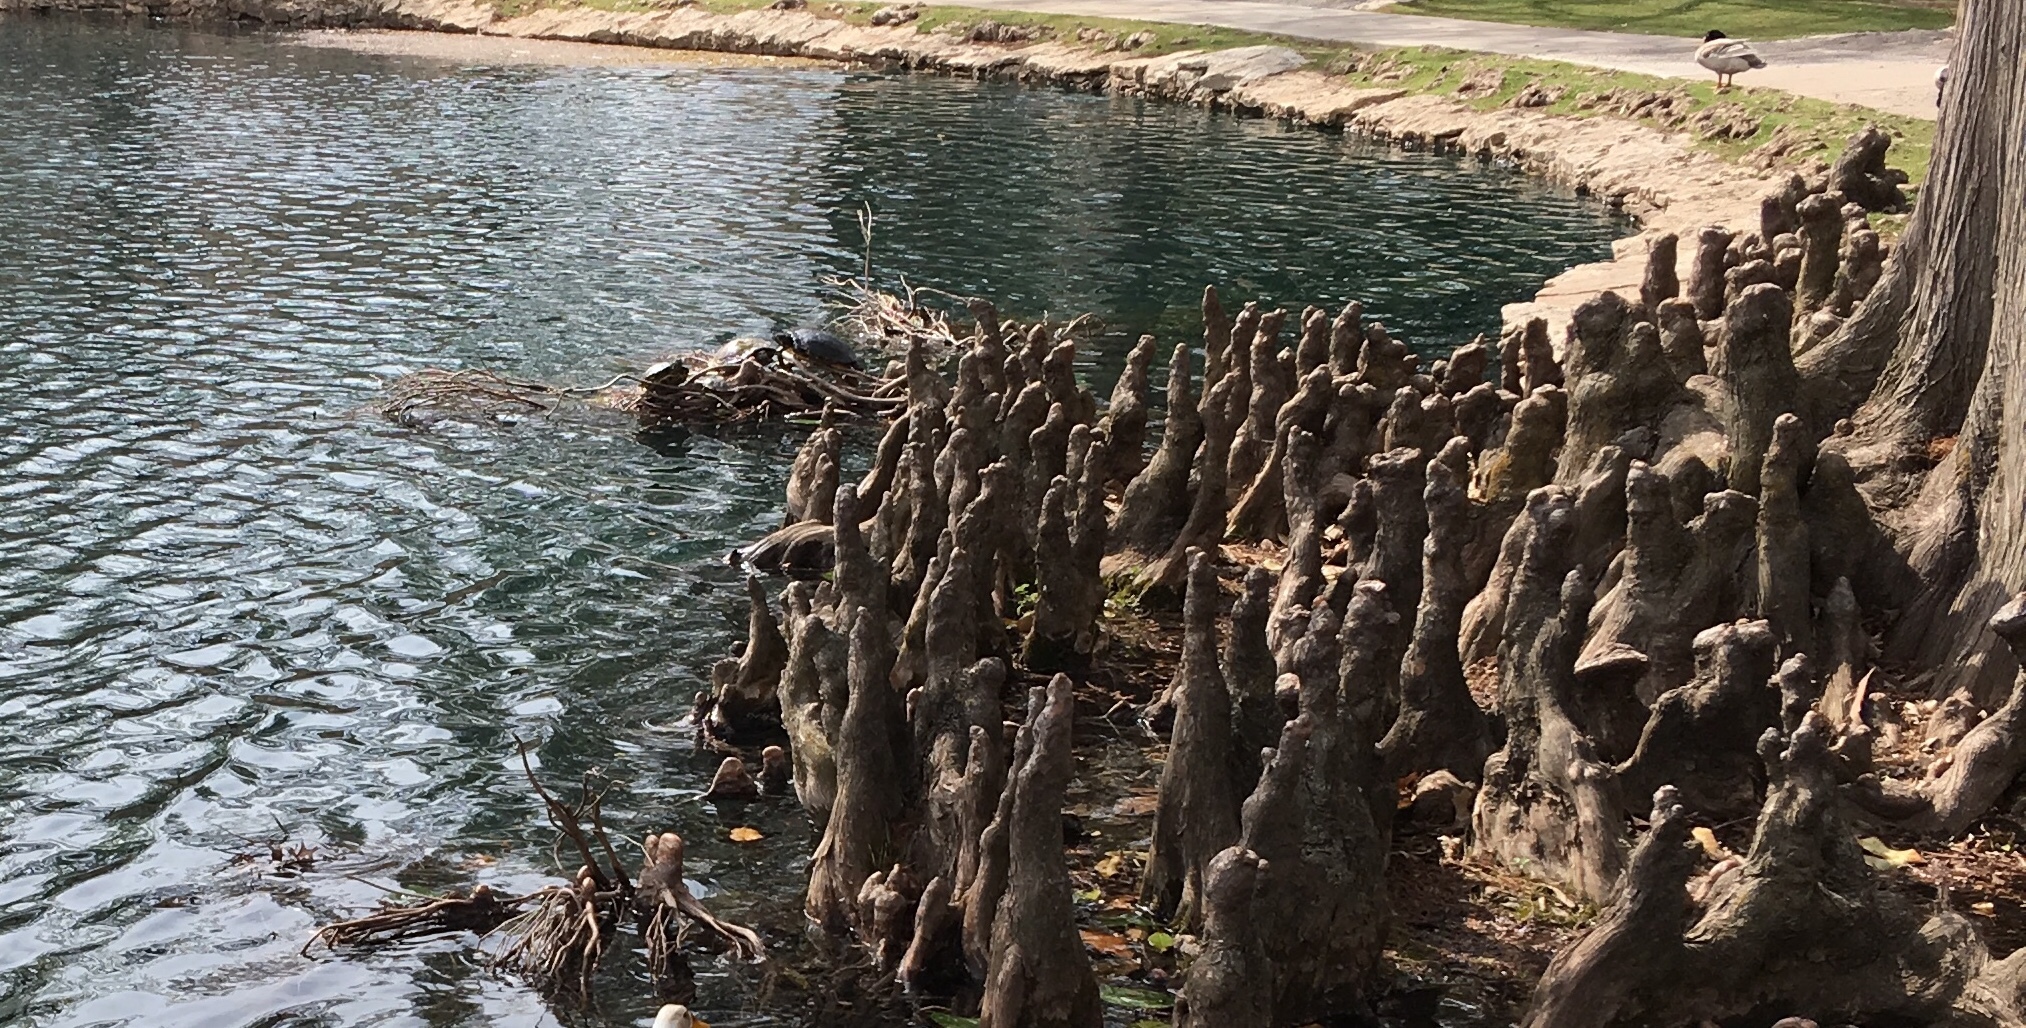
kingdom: Animalia
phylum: Chordata
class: Testudines
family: Emydidae
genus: Trachemys
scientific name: Trachemys scripta
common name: Slider
